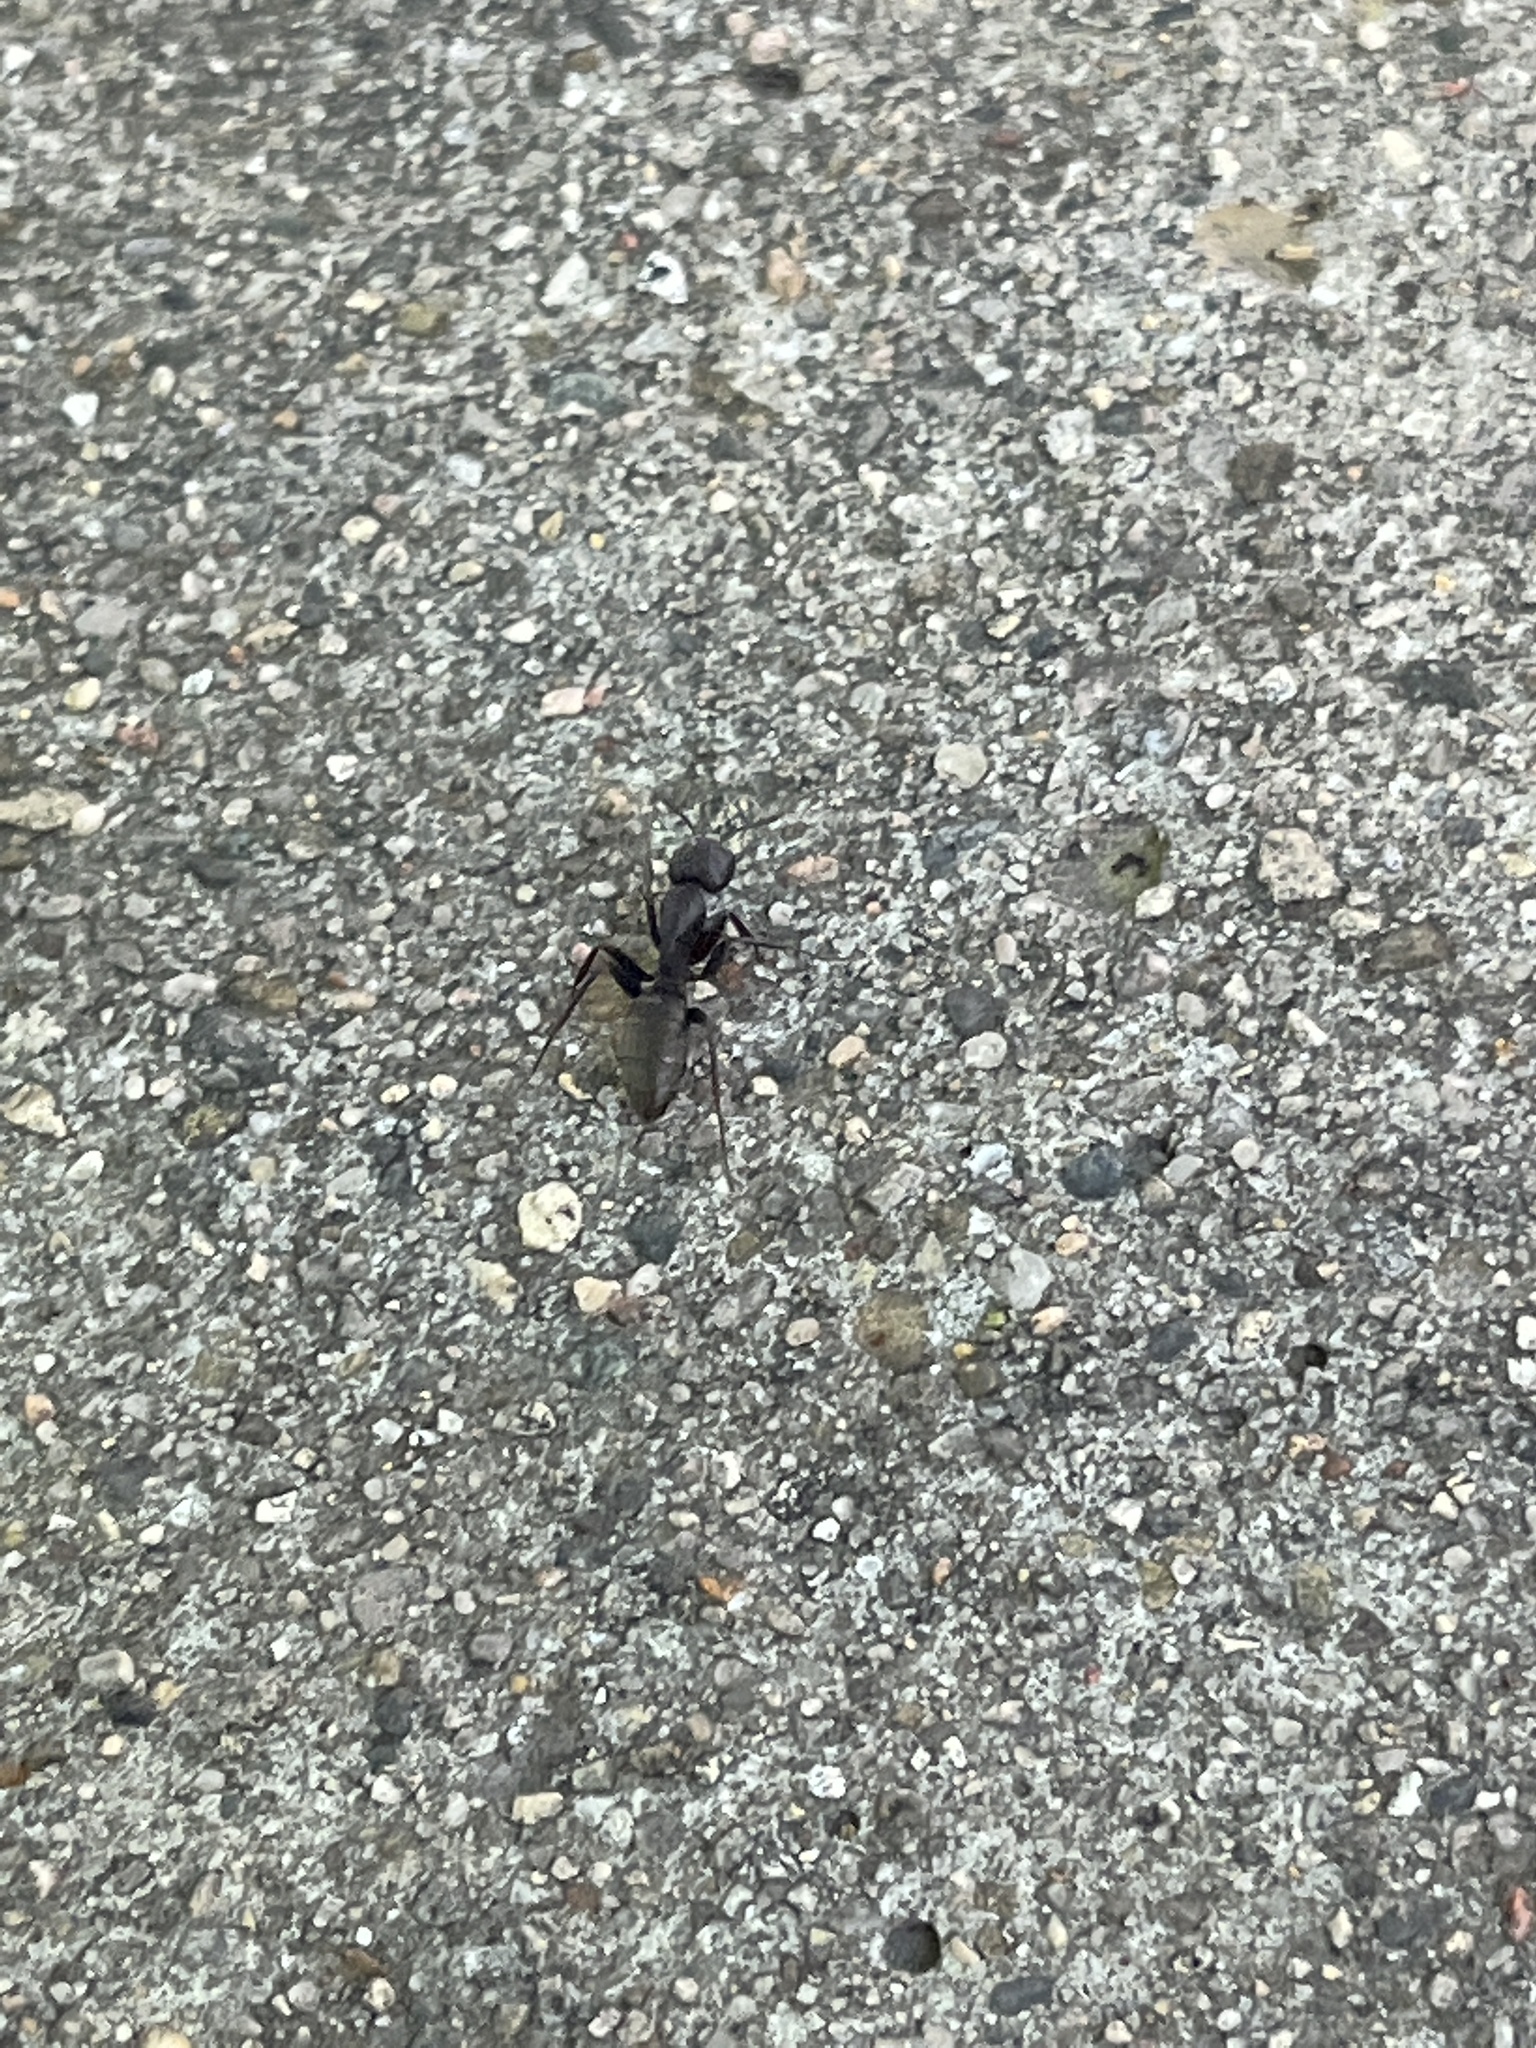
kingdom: Animalia
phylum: Arthropoda
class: Insecta
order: Hymenoptera
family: Formicidae
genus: Camponotus
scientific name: Camponotus pennsylvanicus
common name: Black carpenter ant
